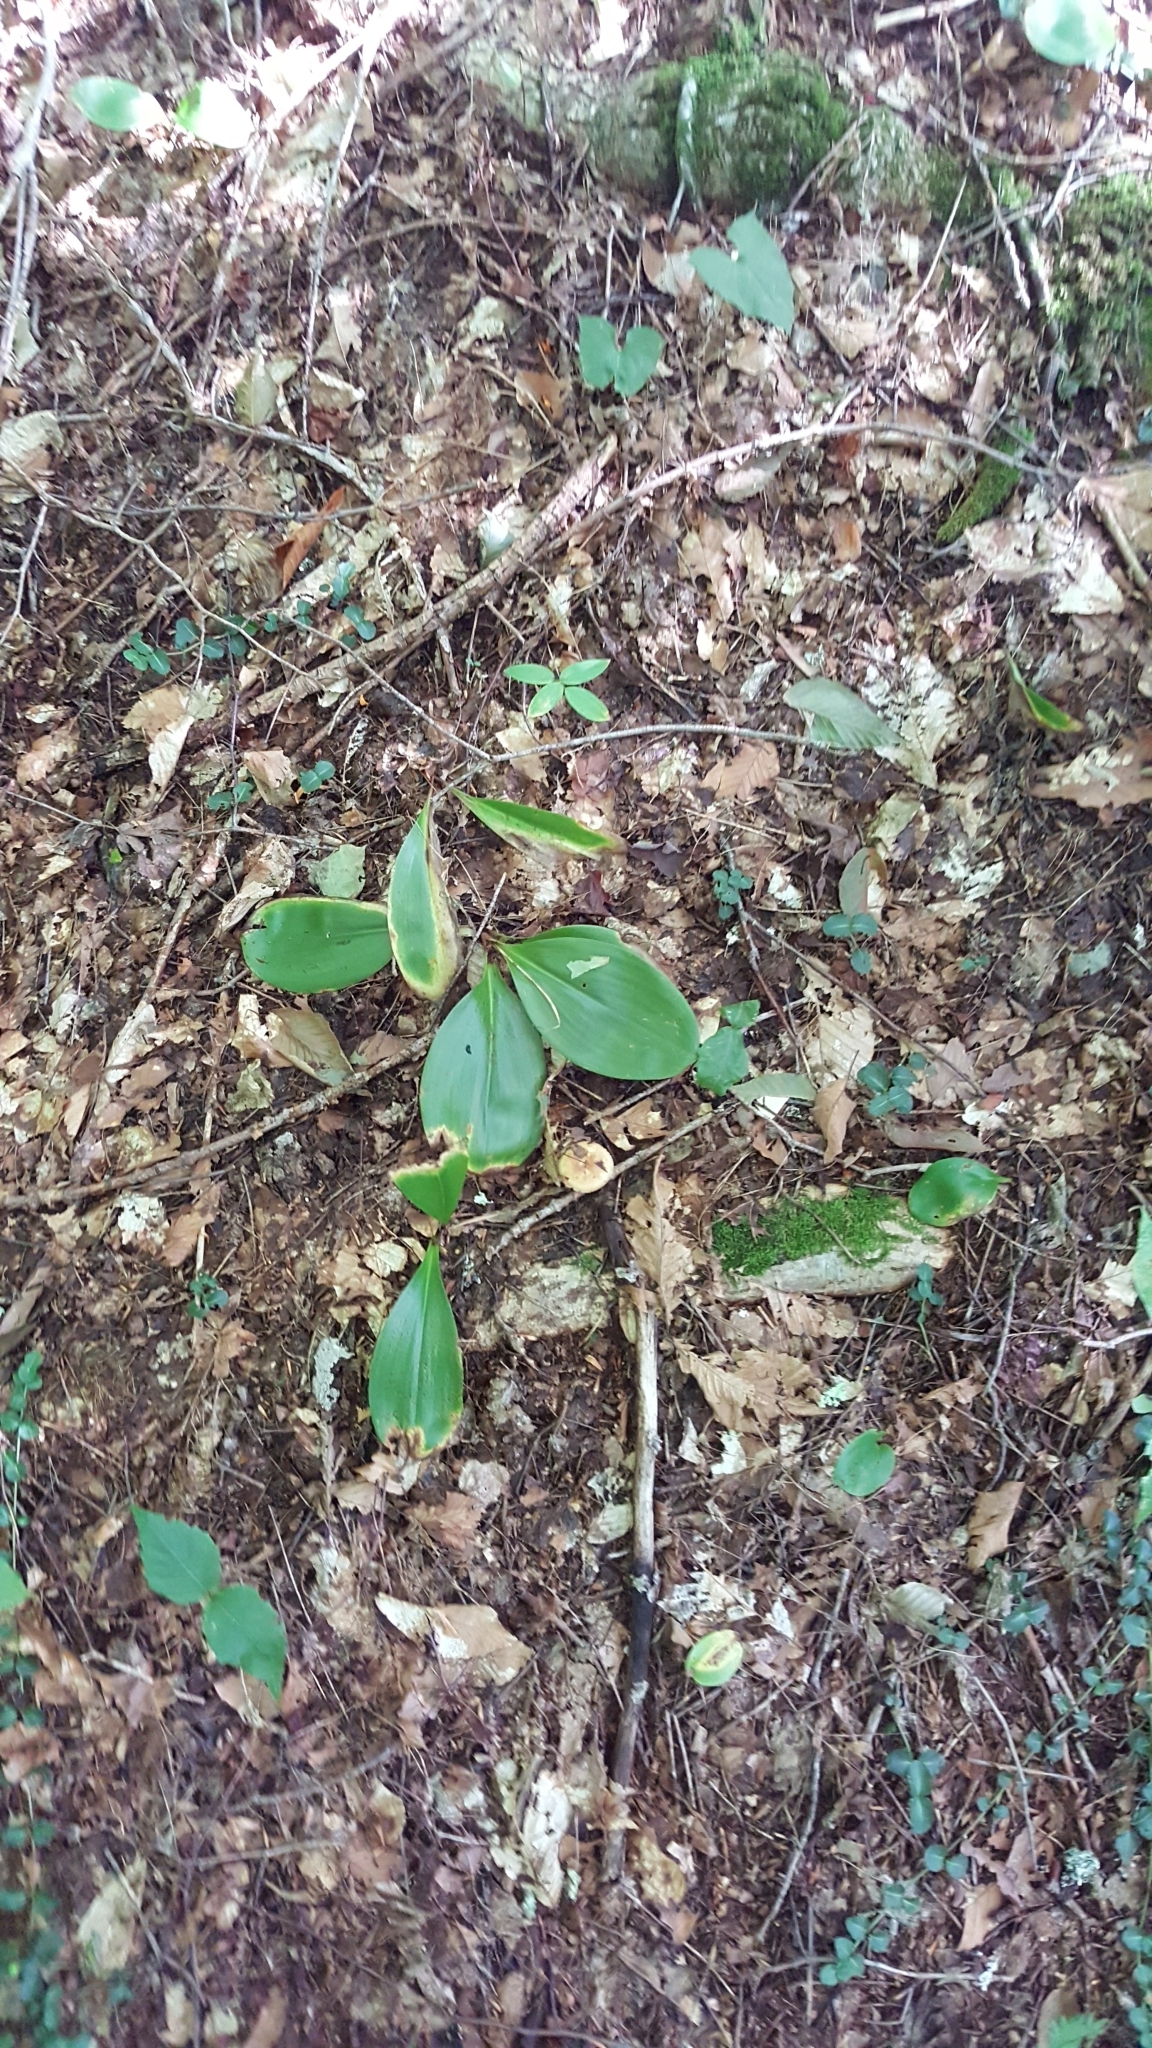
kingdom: Plantae
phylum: Tracheophyta
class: Liliopsida
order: Liliales
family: Liliaceae
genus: Clintonia
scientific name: Clintonia borealis
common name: Yellow clintonia
